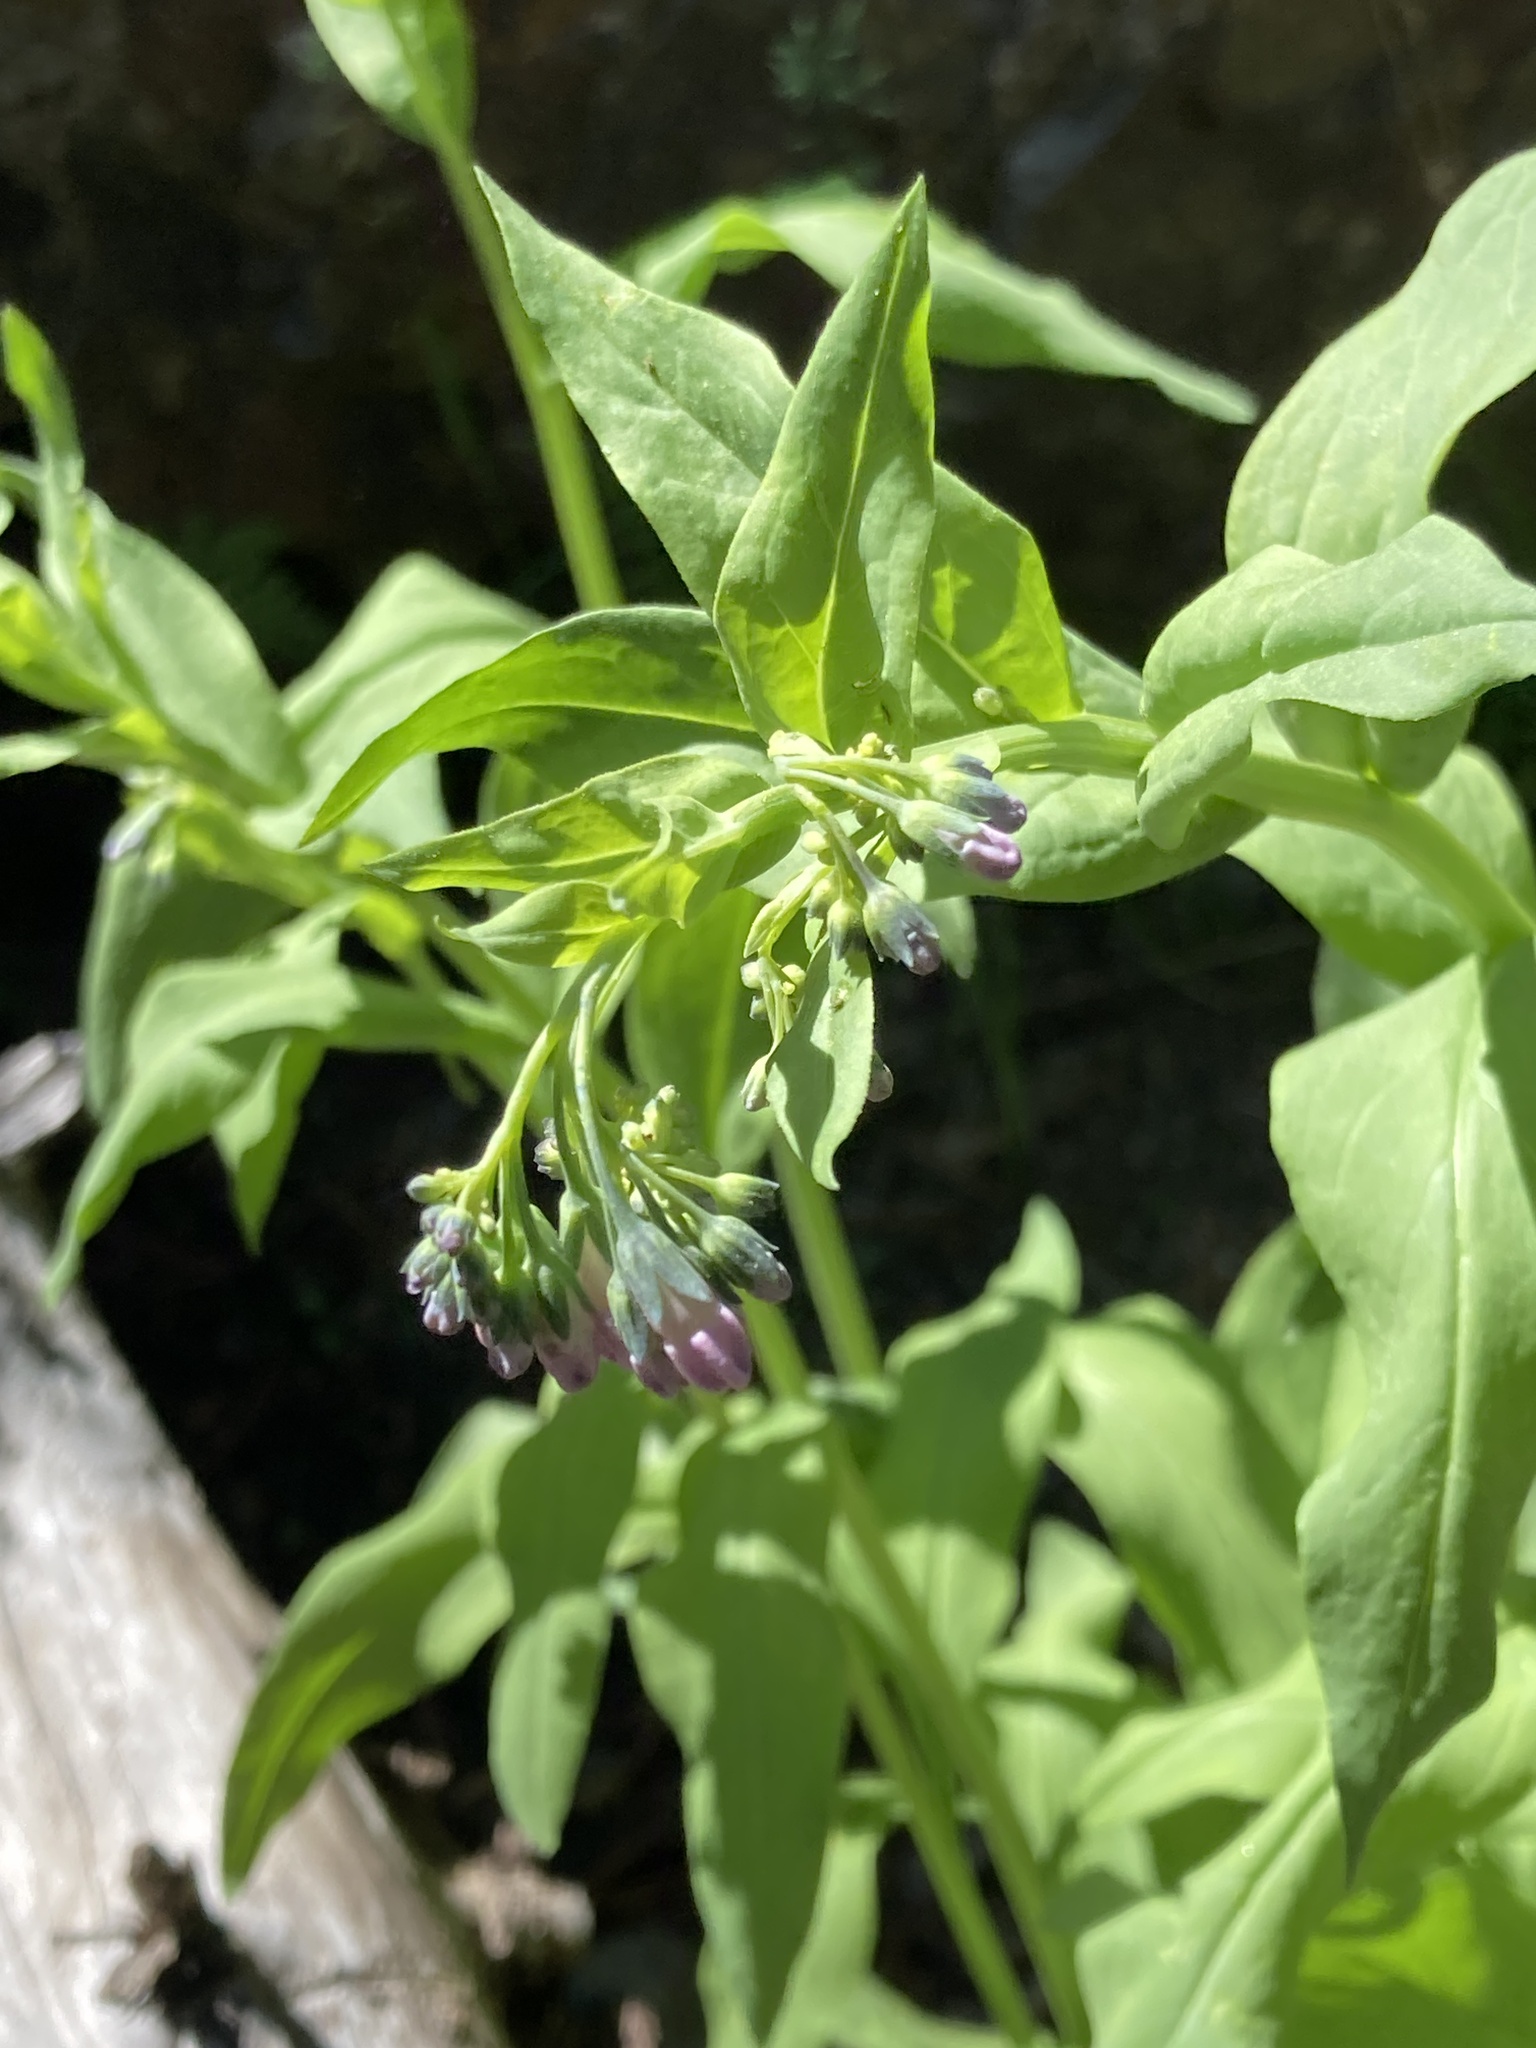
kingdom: Plantae
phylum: Tracheophyta
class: Magnoliopsida
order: Boraginales
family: Boraginaceae
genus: Mertensia
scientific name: Mertensia ciliata
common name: Tall chiming-bells
